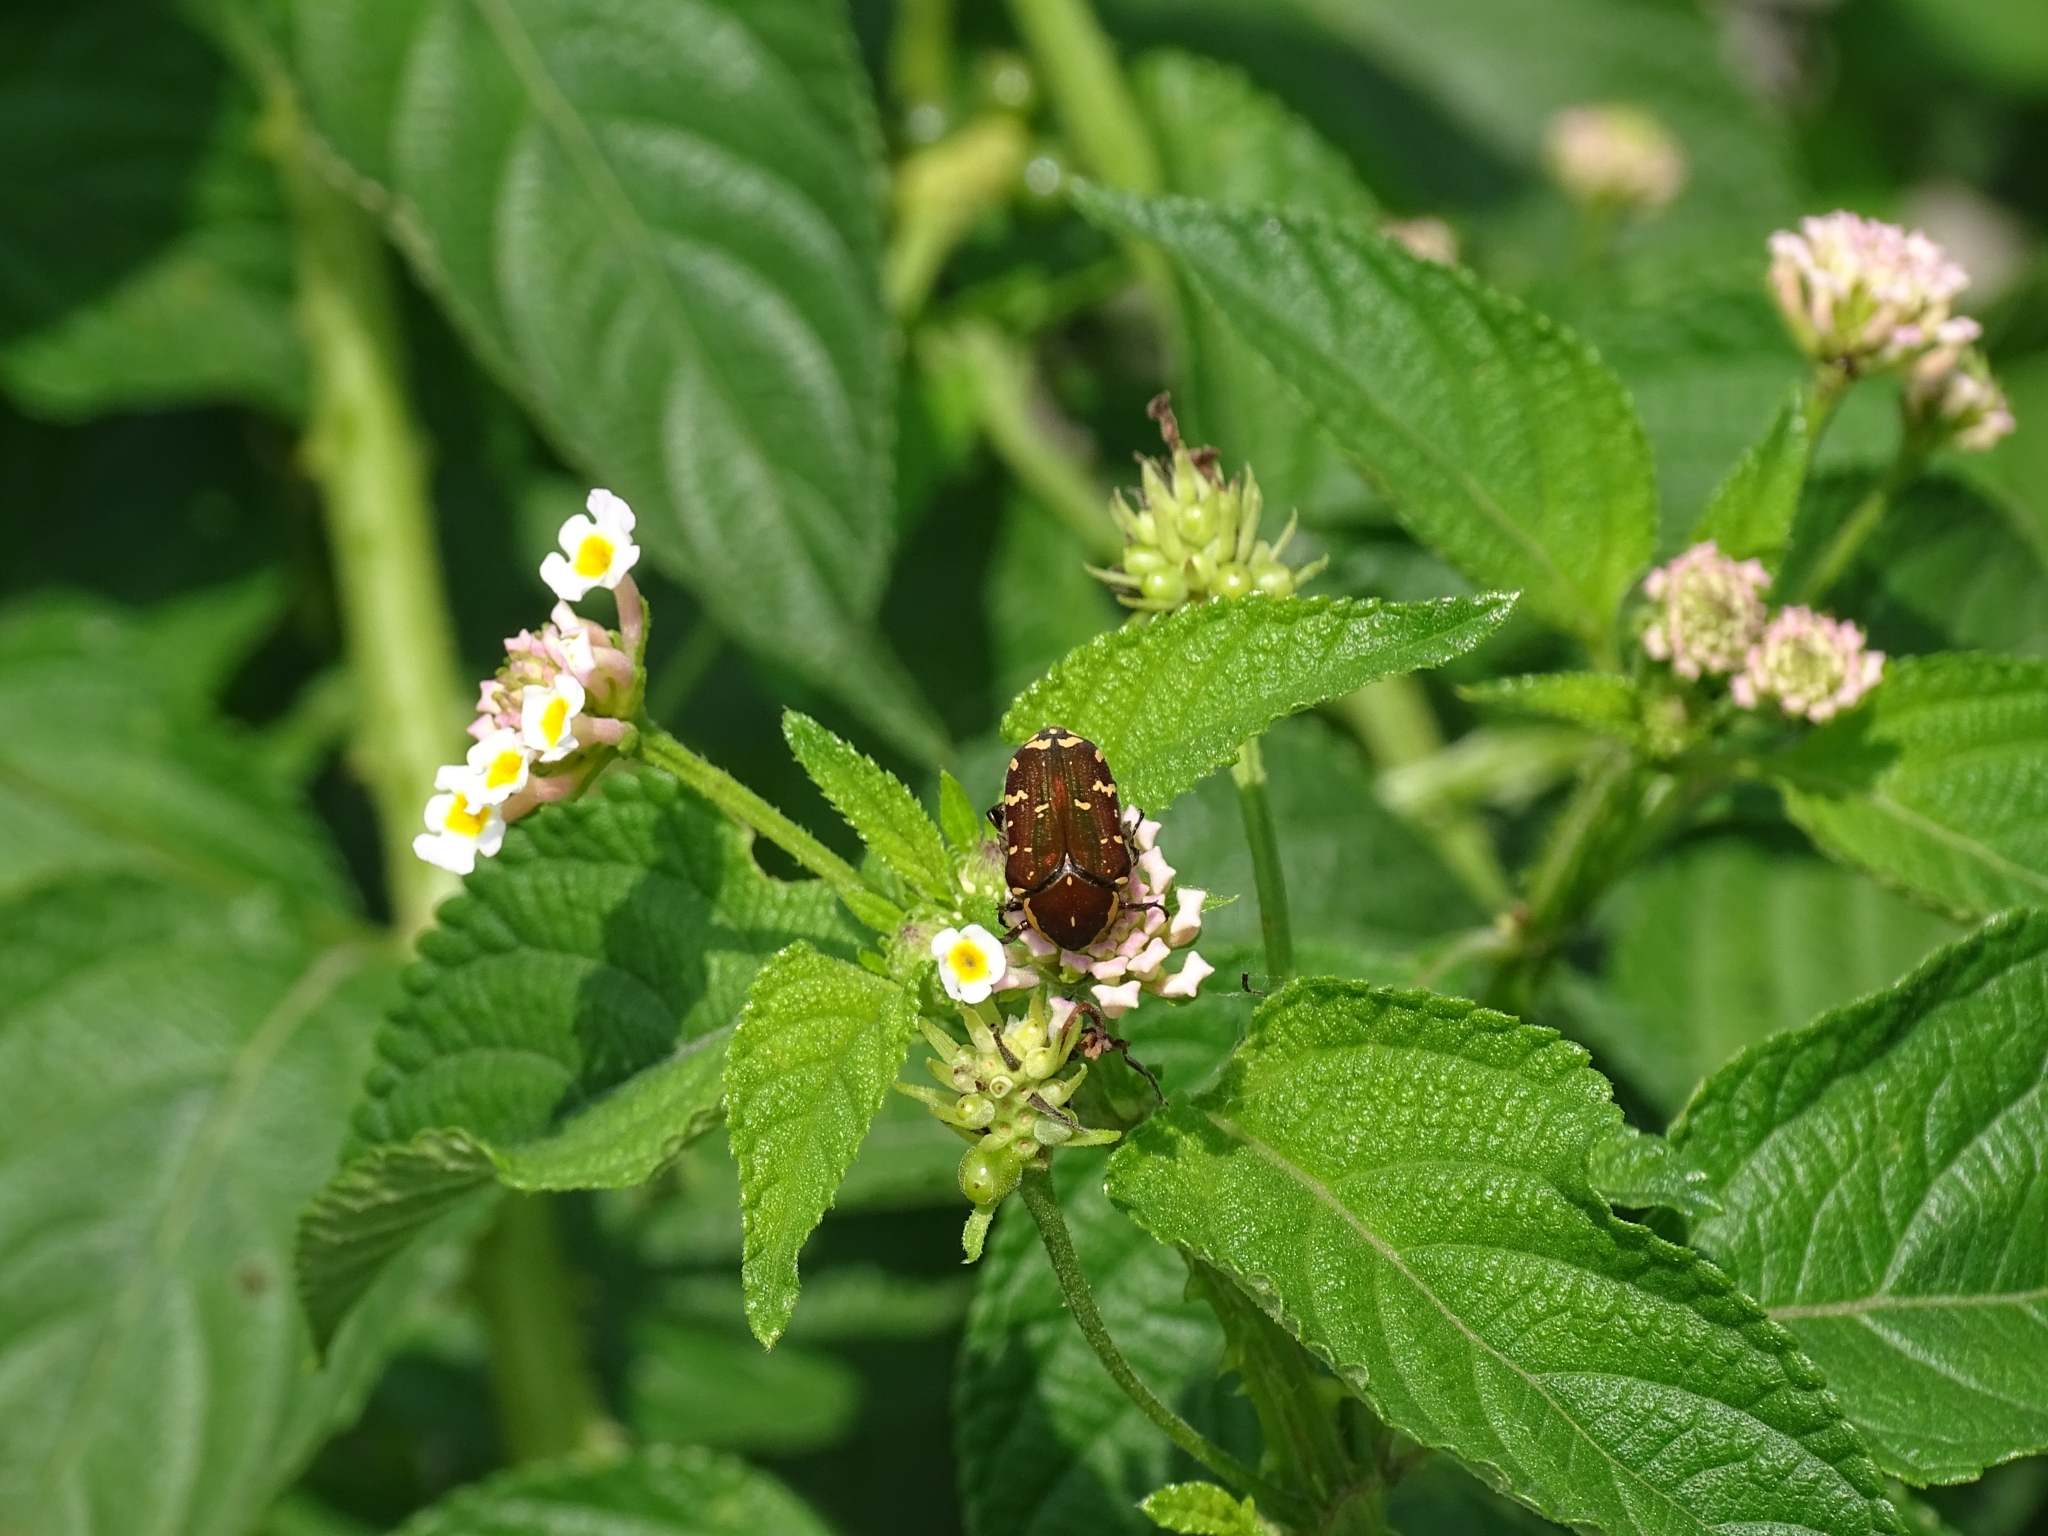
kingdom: Animalia
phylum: Arthropoda
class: Insecta
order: Coleoptera
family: Scarabaeidae
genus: Clinteria
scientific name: Clinteria confinis
